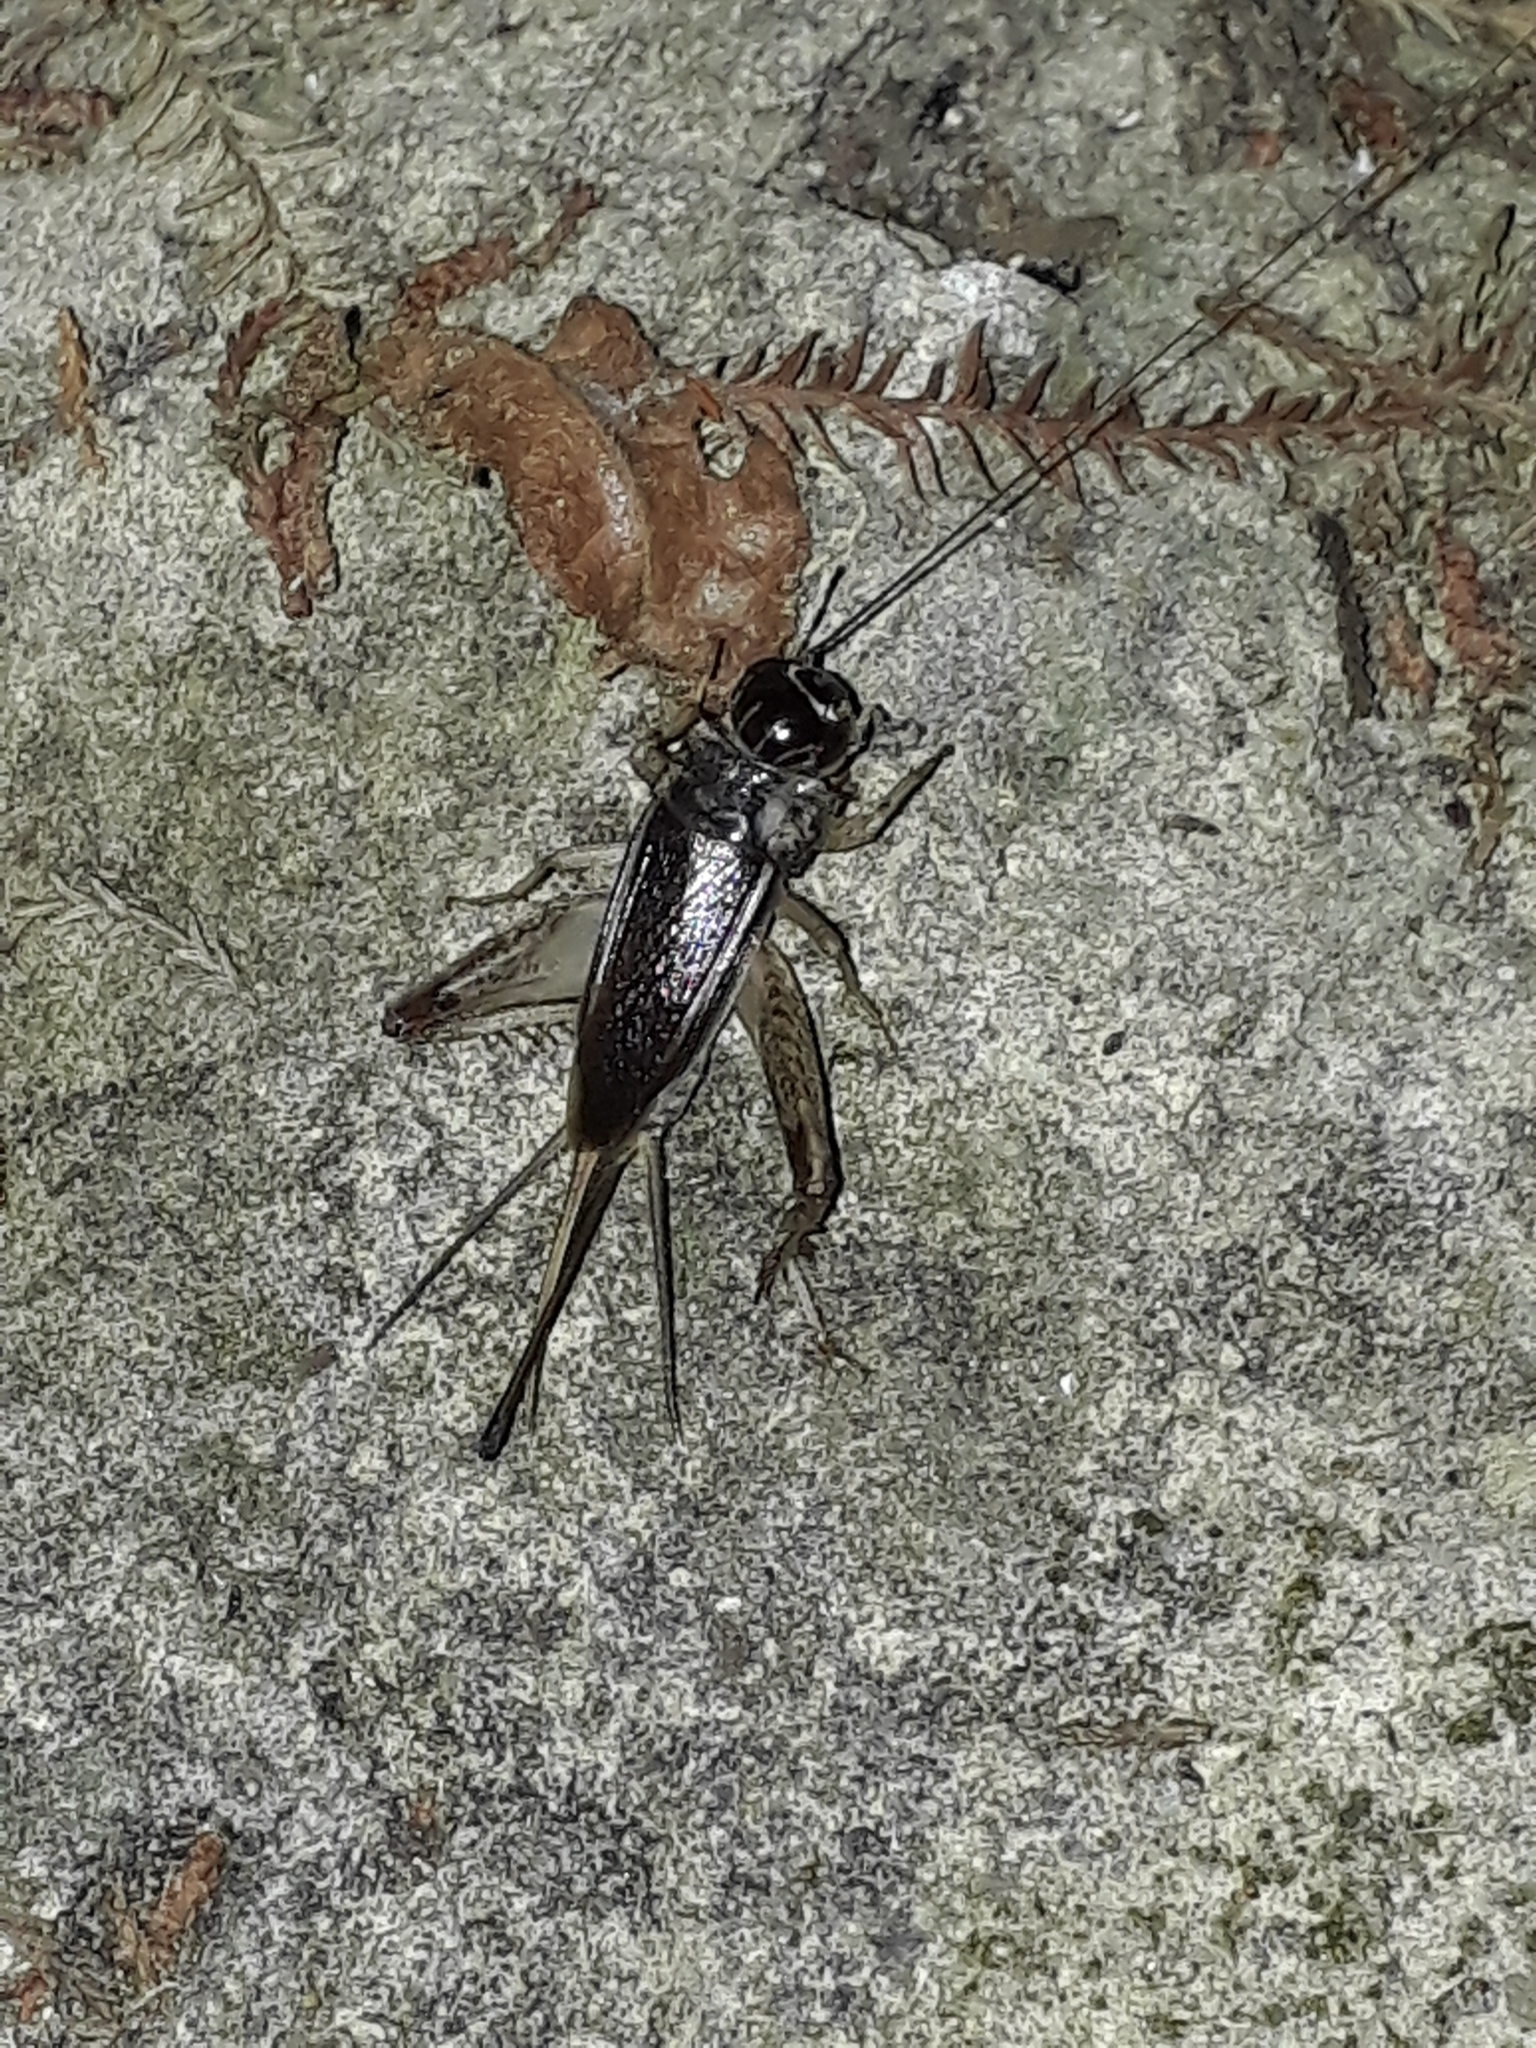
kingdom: Animalia
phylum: Arthropoda
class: Insecta
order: Orthoptera
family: Gryllidae
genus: Lepidogryllus
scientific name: Lepidogryllus parvulus
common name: Fast-chirping field crickets
